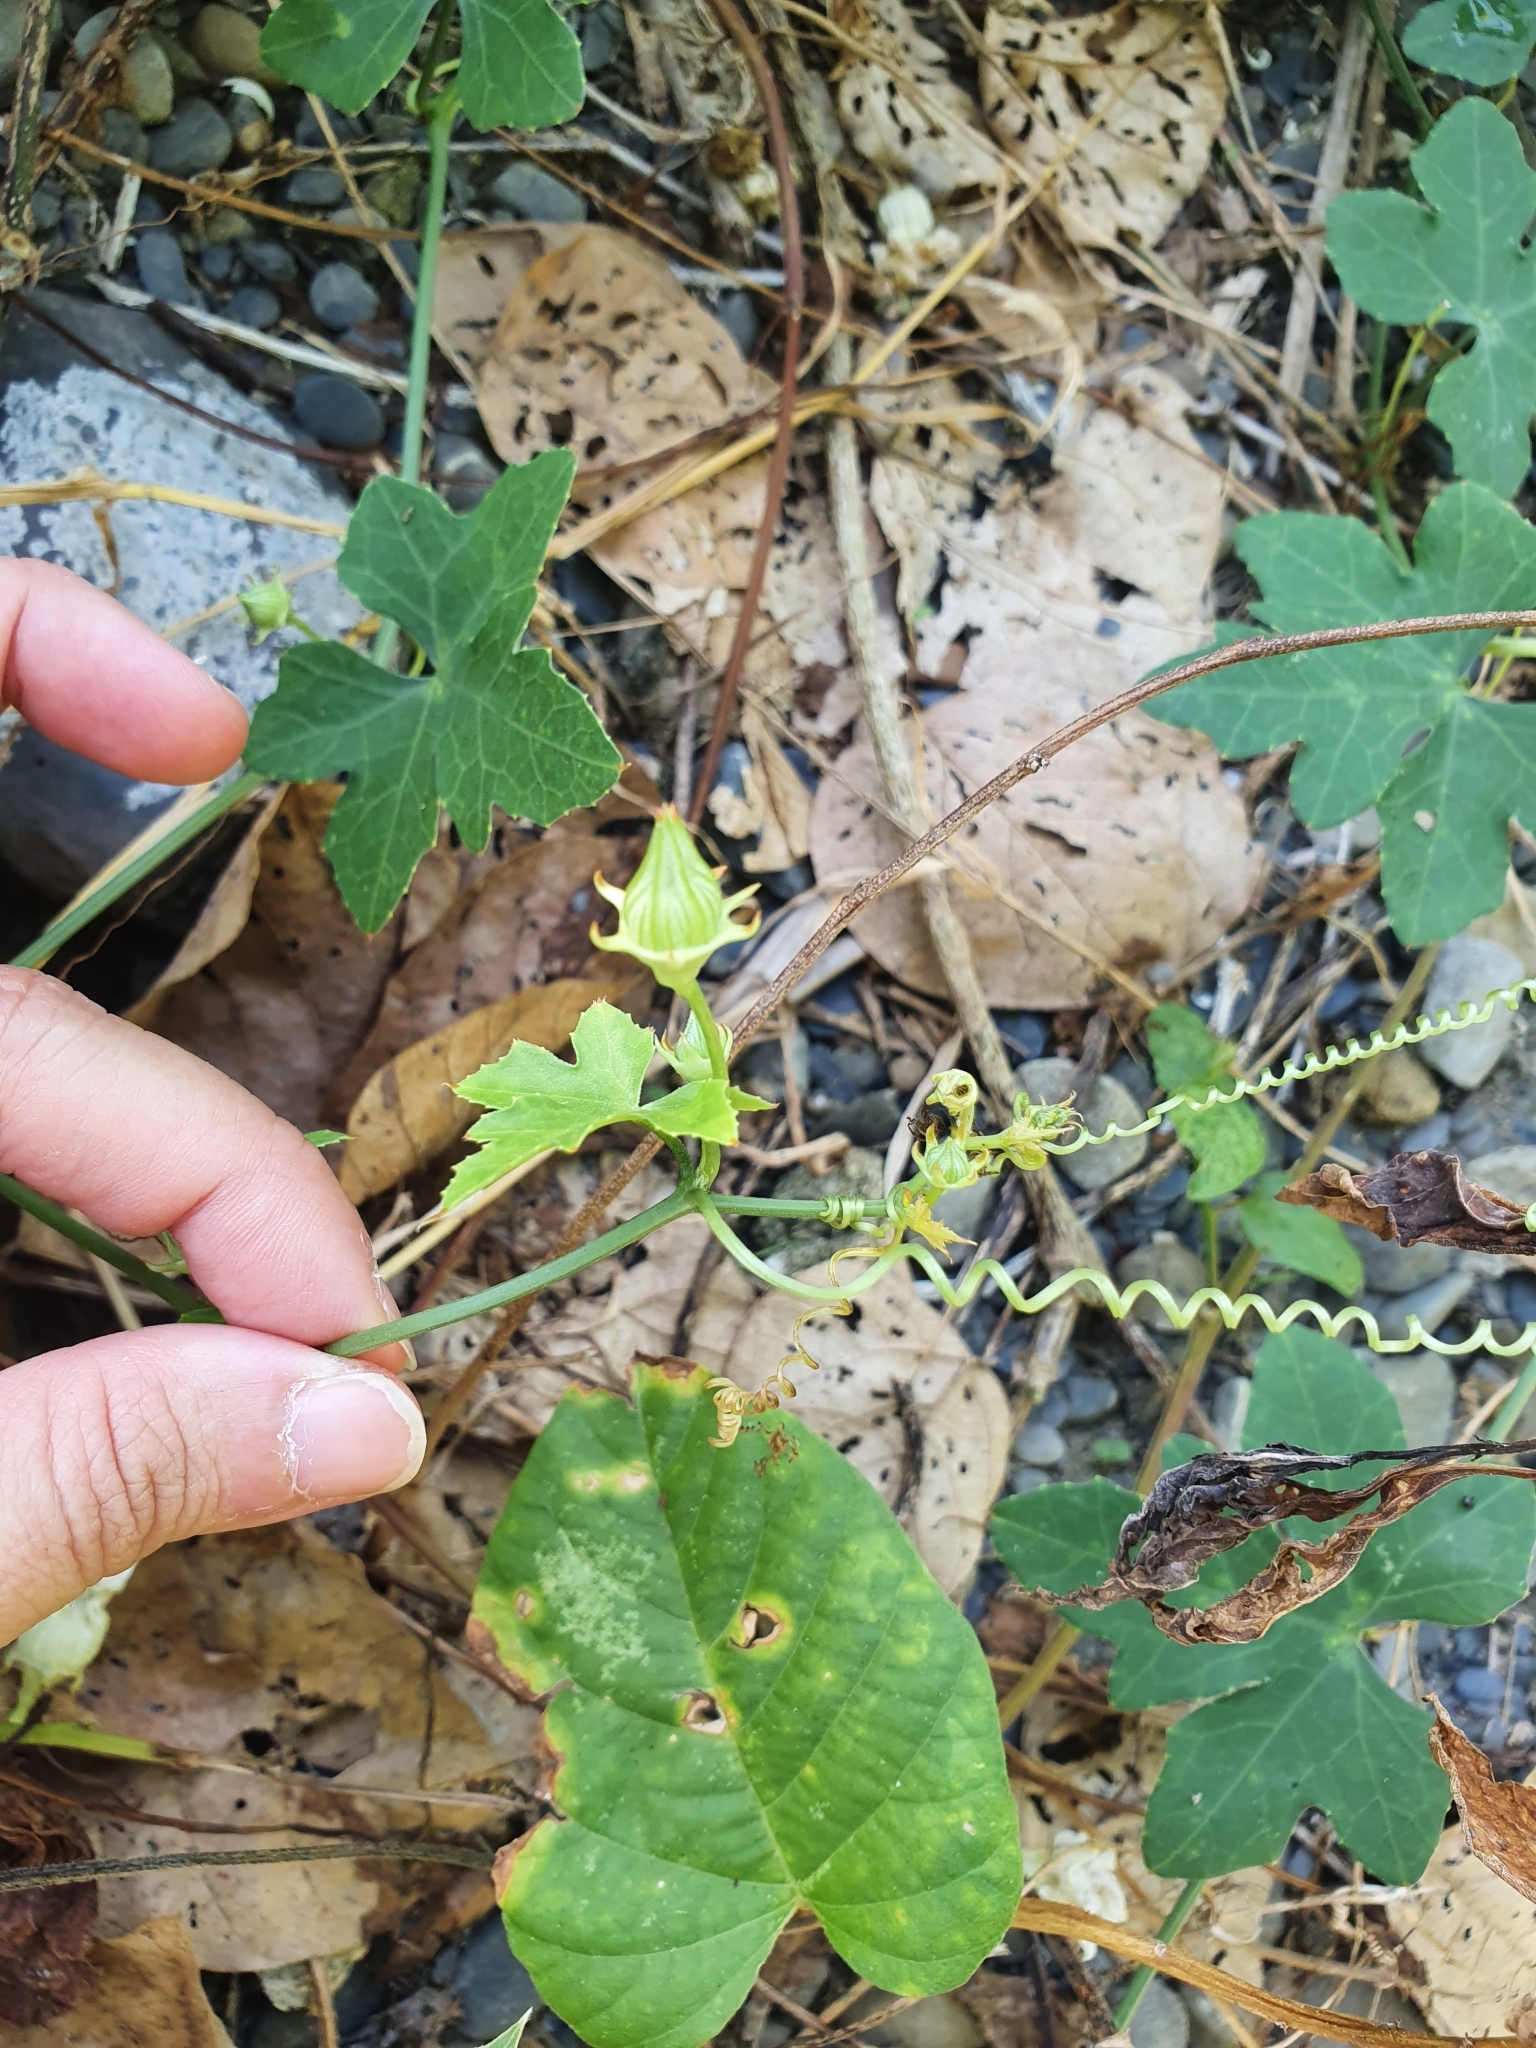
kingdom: Plantae
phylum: Tracheophyta
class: Magnoliopsida
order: Cucurbitales
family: Cucurbitaceae
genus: Coccinia
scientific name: Coccinia grandis
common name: Ivy gourd
